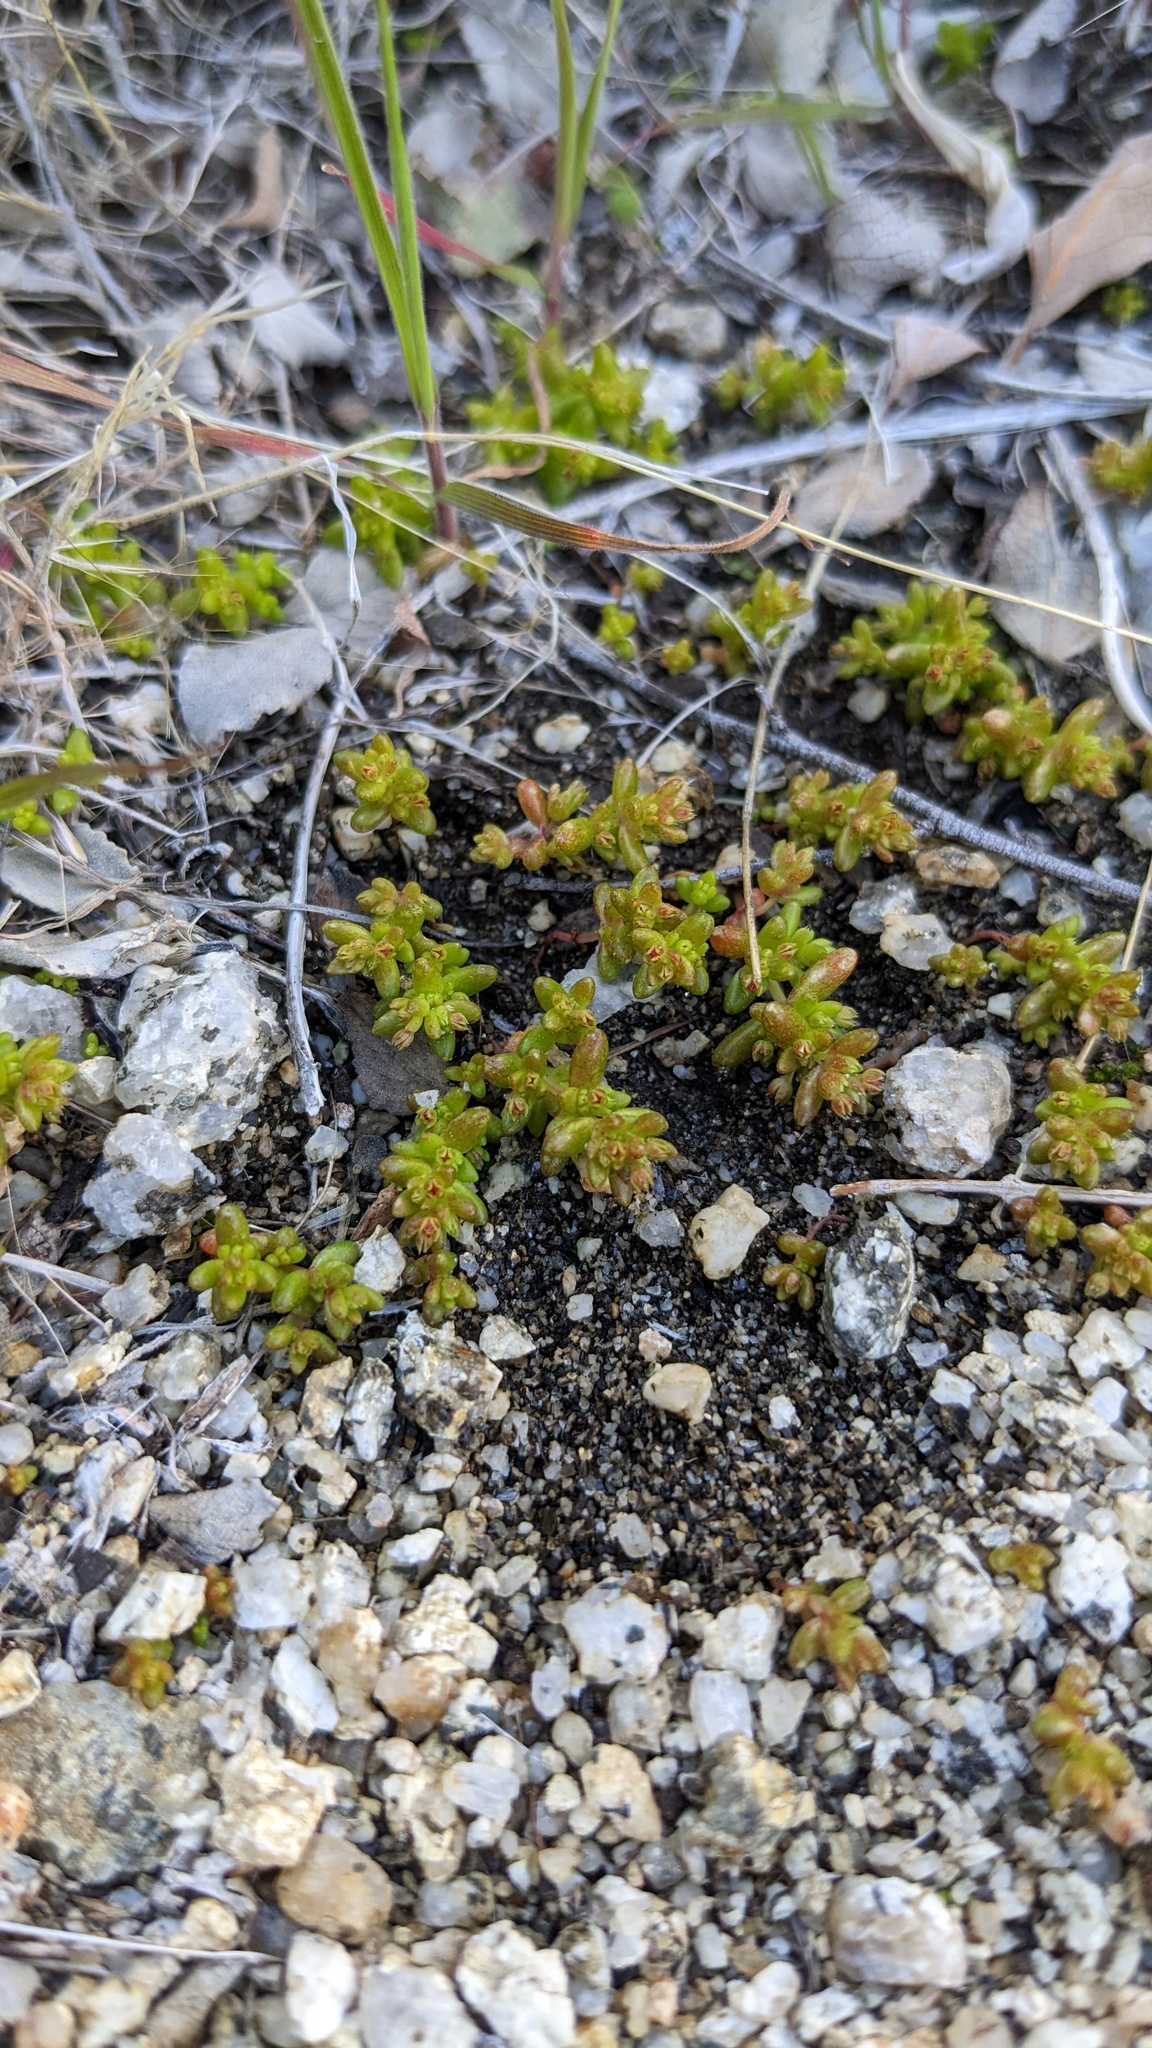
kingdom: Plantae
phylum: Tracheophyta
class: Magnoliopsida
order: Saxifragales
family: Crassulaceae
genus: Crassula
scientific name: Crassula connata
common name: Erect pygmyweed
